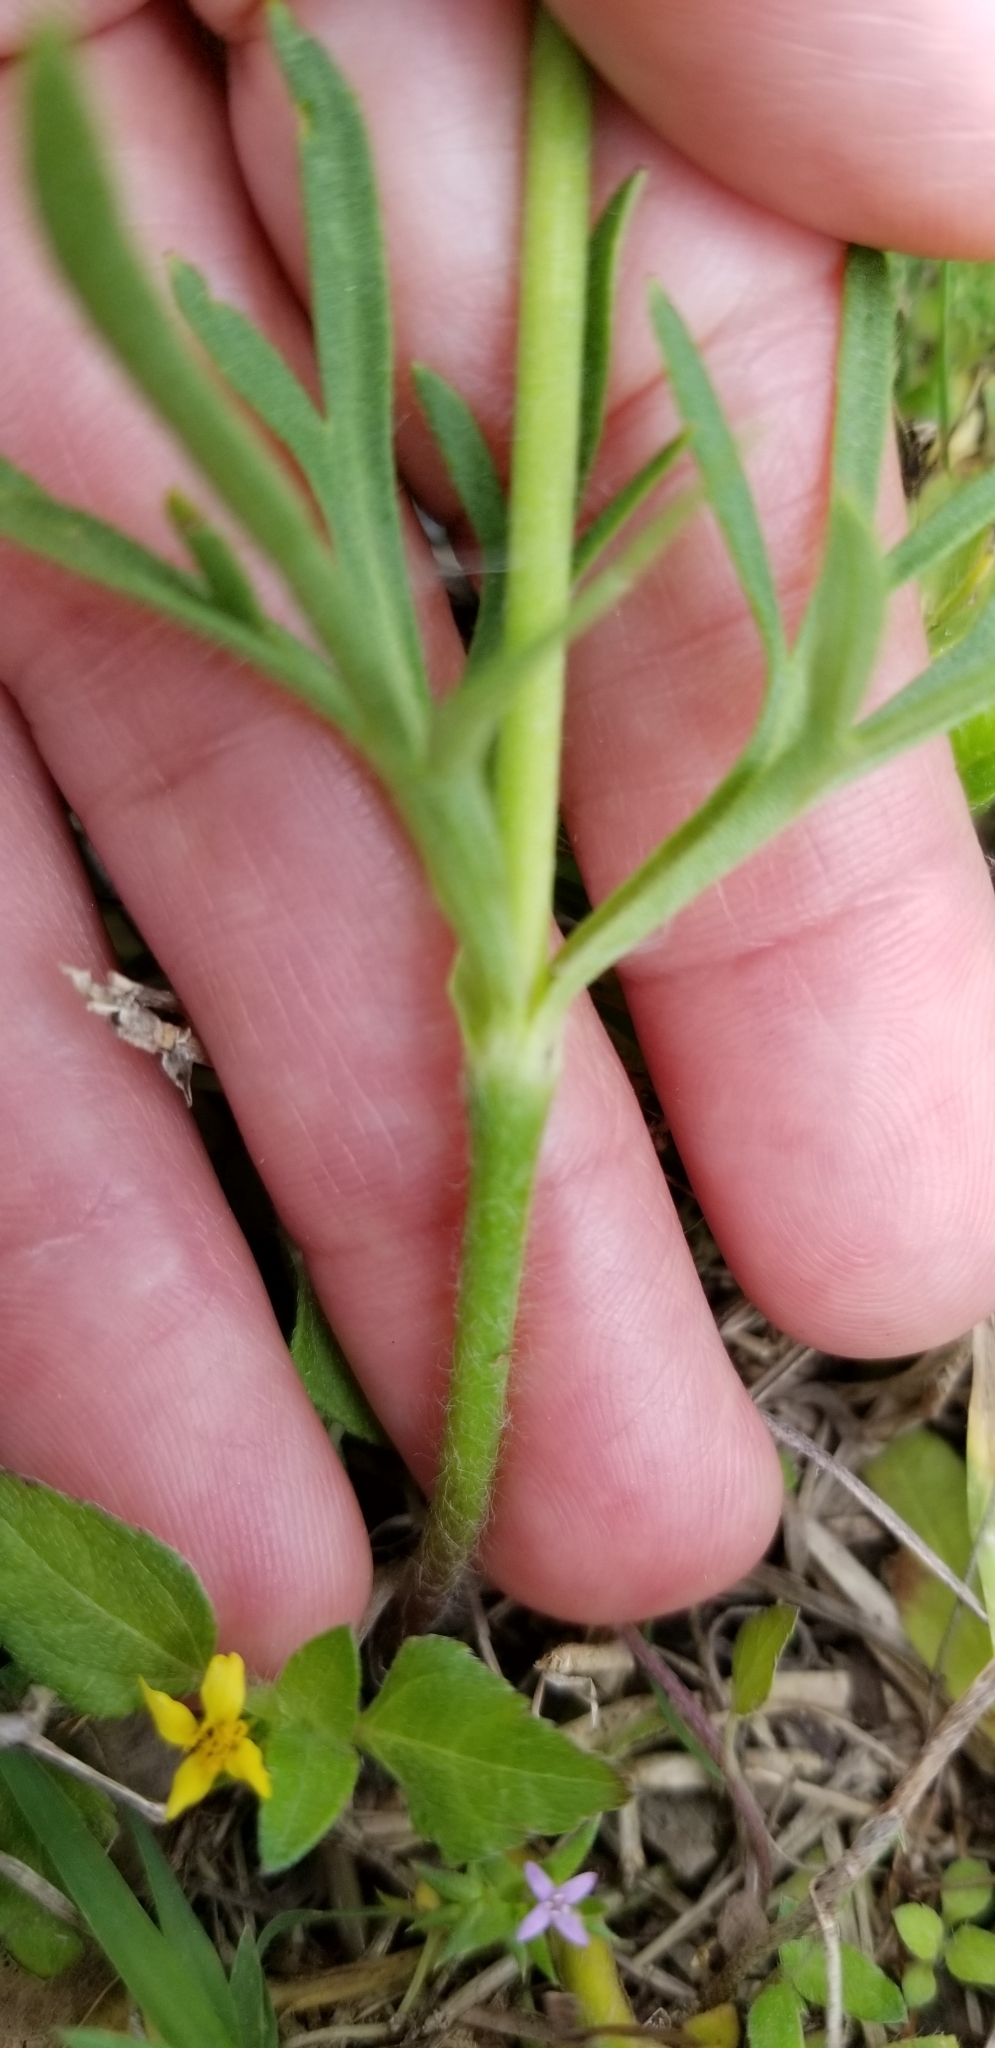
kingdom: Plantae
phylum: Tracheophyta
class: Magnoliopsida
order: Ranunculales
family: Ranunculaceae
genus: Anemone
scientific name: Anemone berlandieri
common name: Ten-petal anemone
